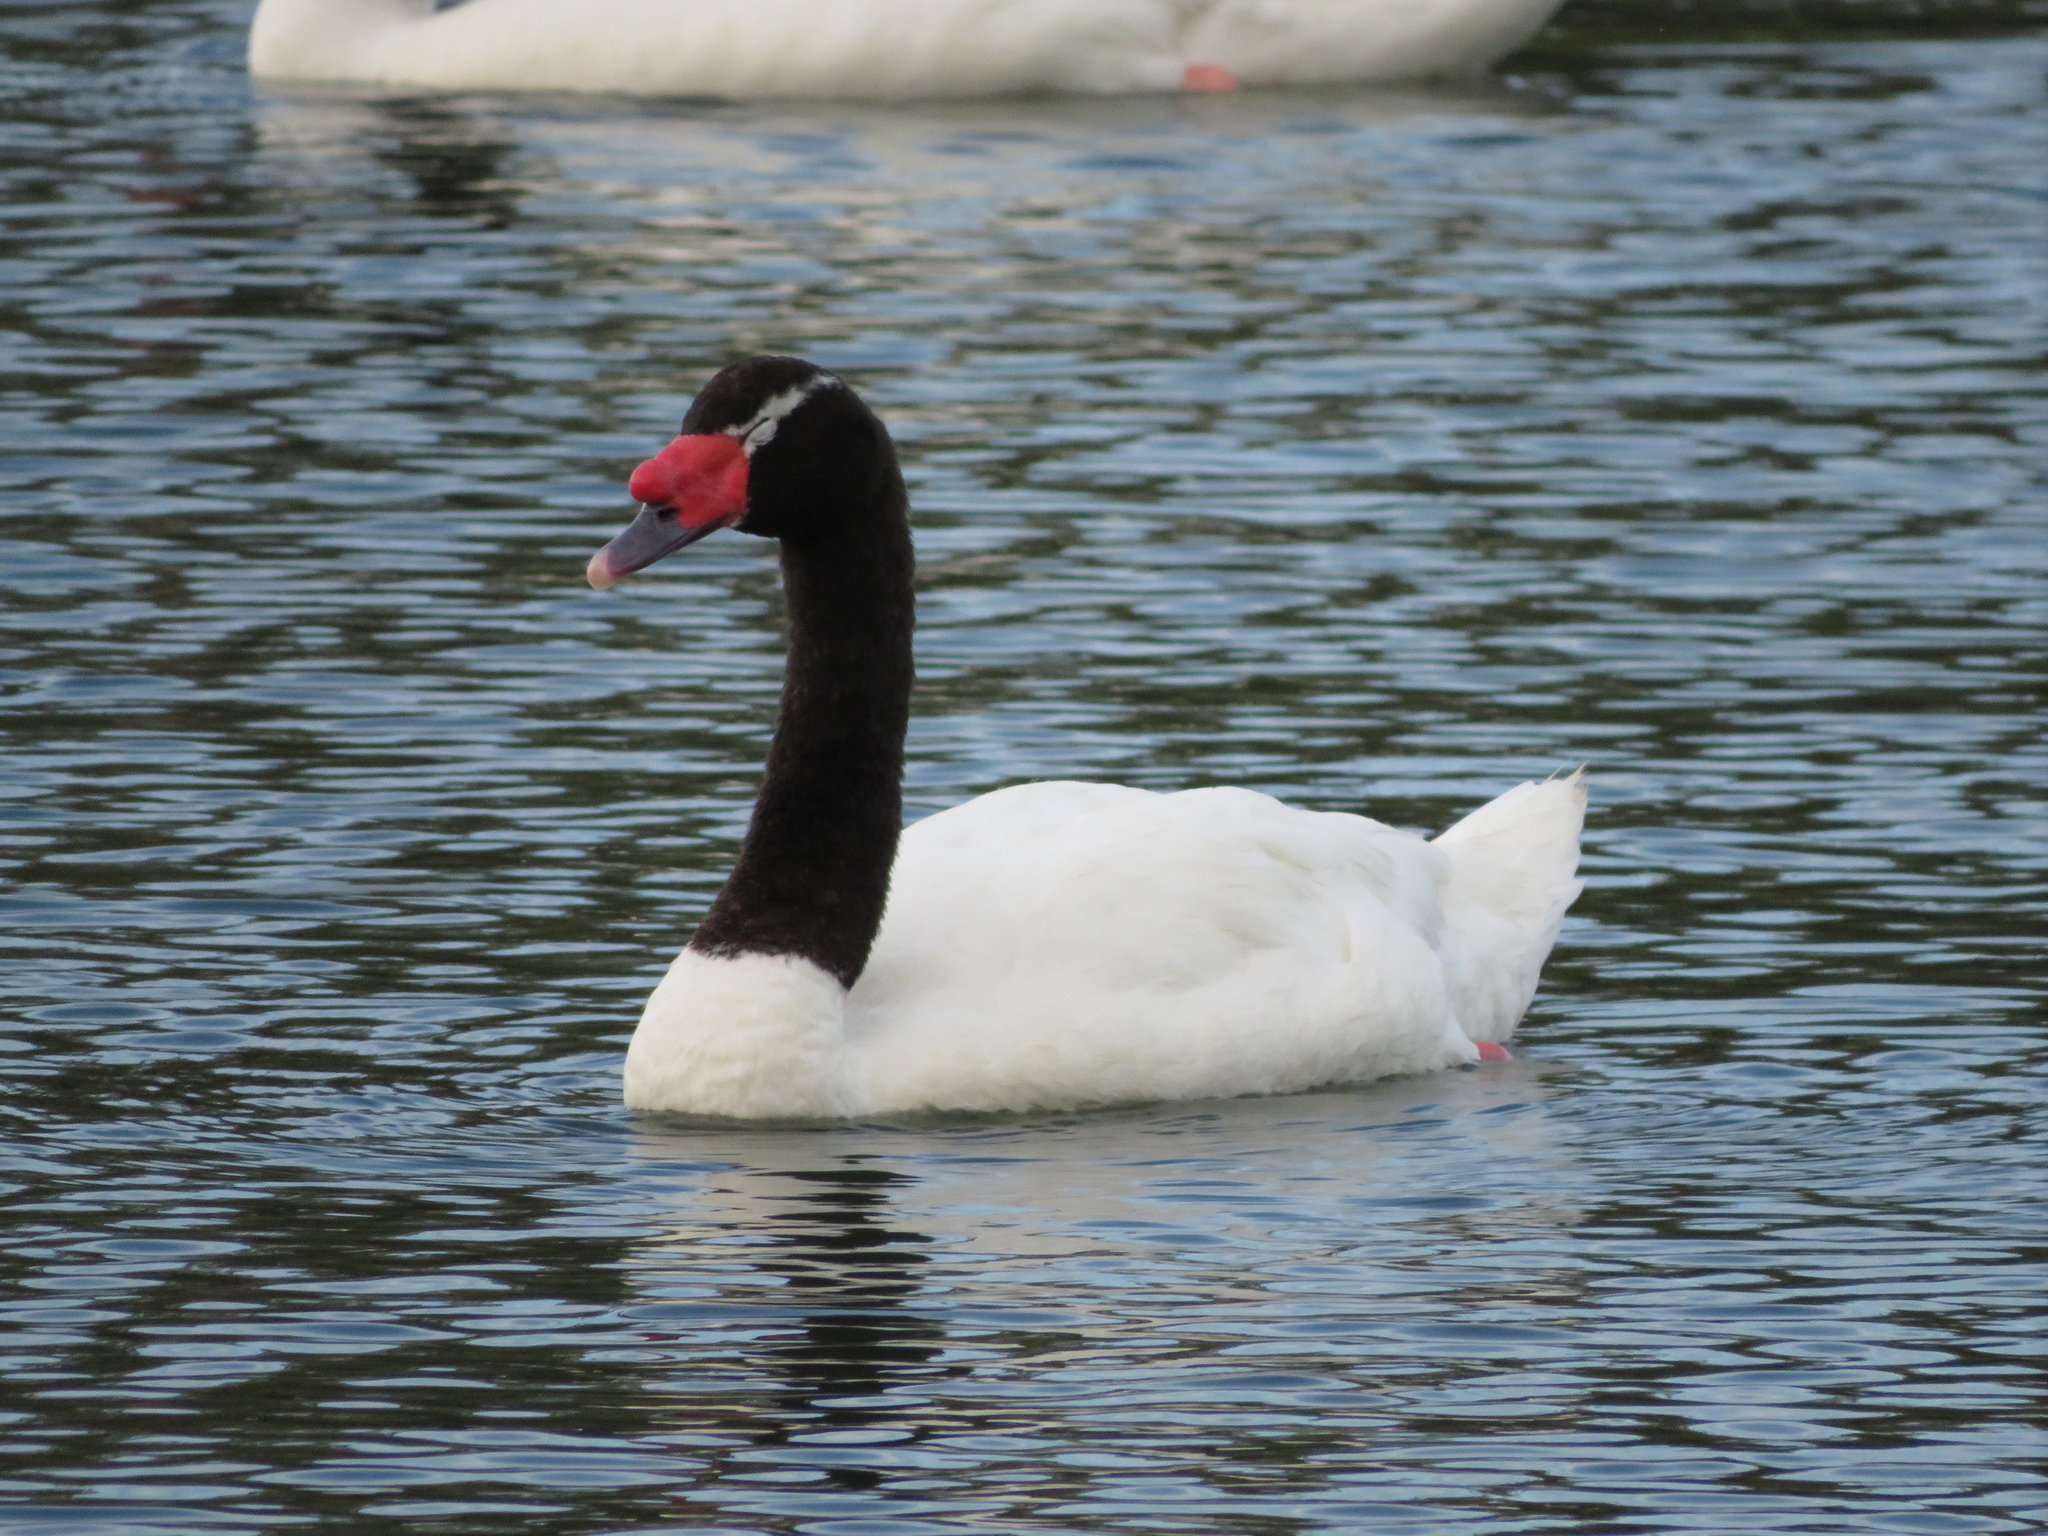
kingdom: Animalia
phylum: Chordata
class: Aves
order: Anseriformes
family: Anatidae
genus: Cygnus
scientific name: Cygnus melancoryphus
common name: Black-necked swan
